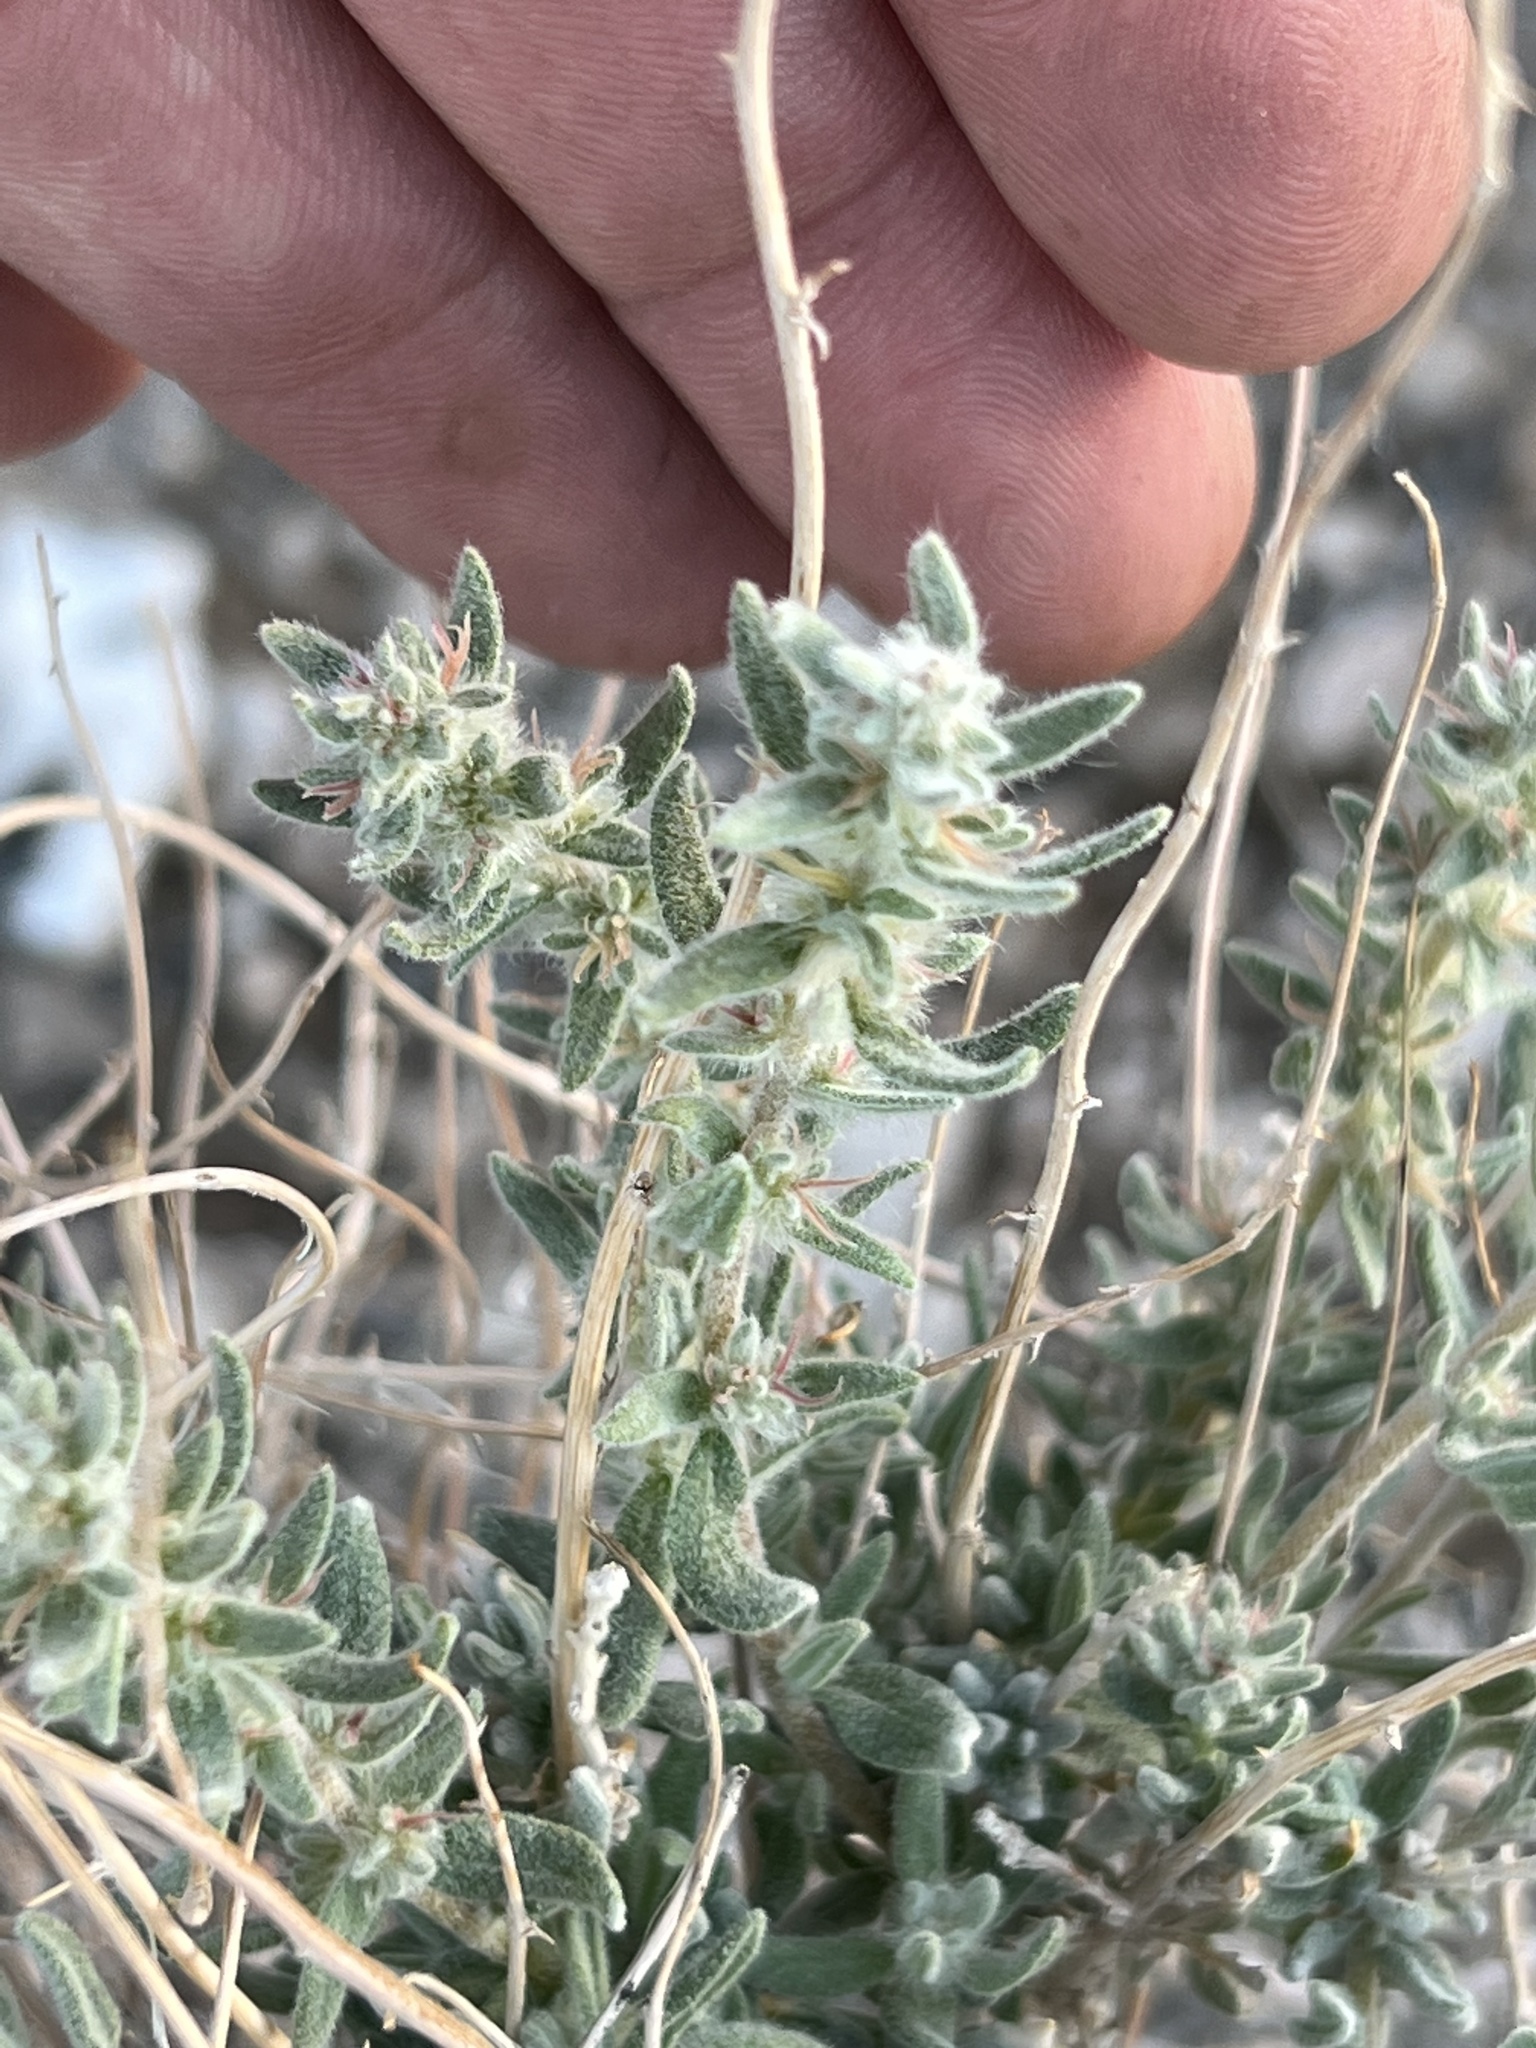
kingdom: Plantae
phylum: Tracheophyta
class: Magnoliopsida
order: Caryophyllales
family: Amaranthaceae
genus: Krascheninnikovia
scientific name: Krascheninnikovia lanata
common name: Winterfat
